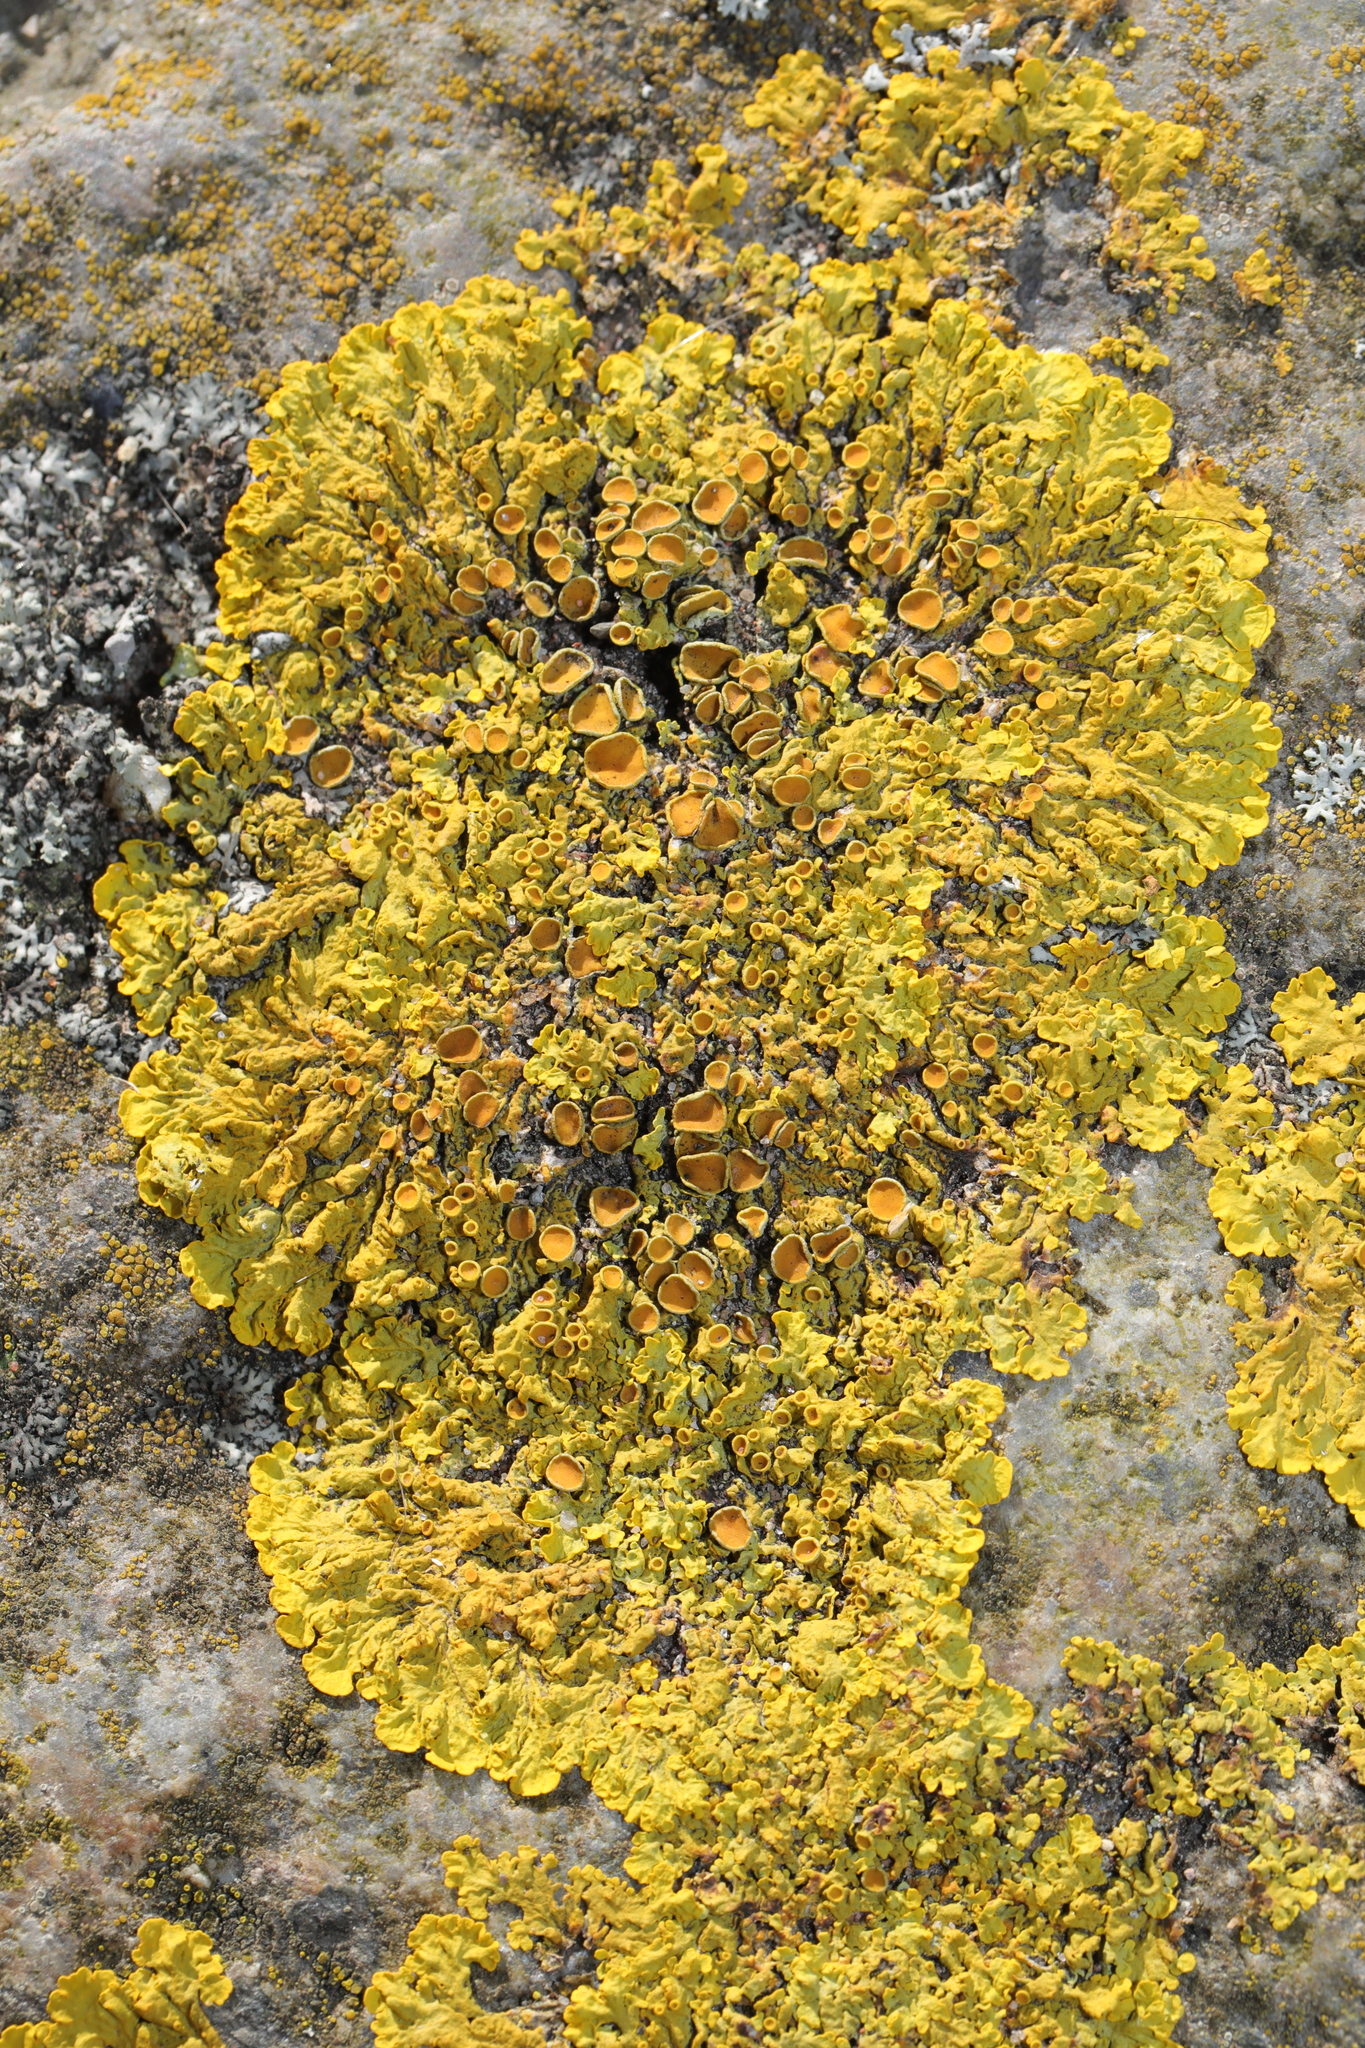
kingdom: Fungi
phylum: Ascomycota
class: Lecanoromycetes
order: Teloschistales
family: Teloschistaceae
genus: Xanthoria
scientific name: Xanthoria parietina
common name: Common orange lichen
